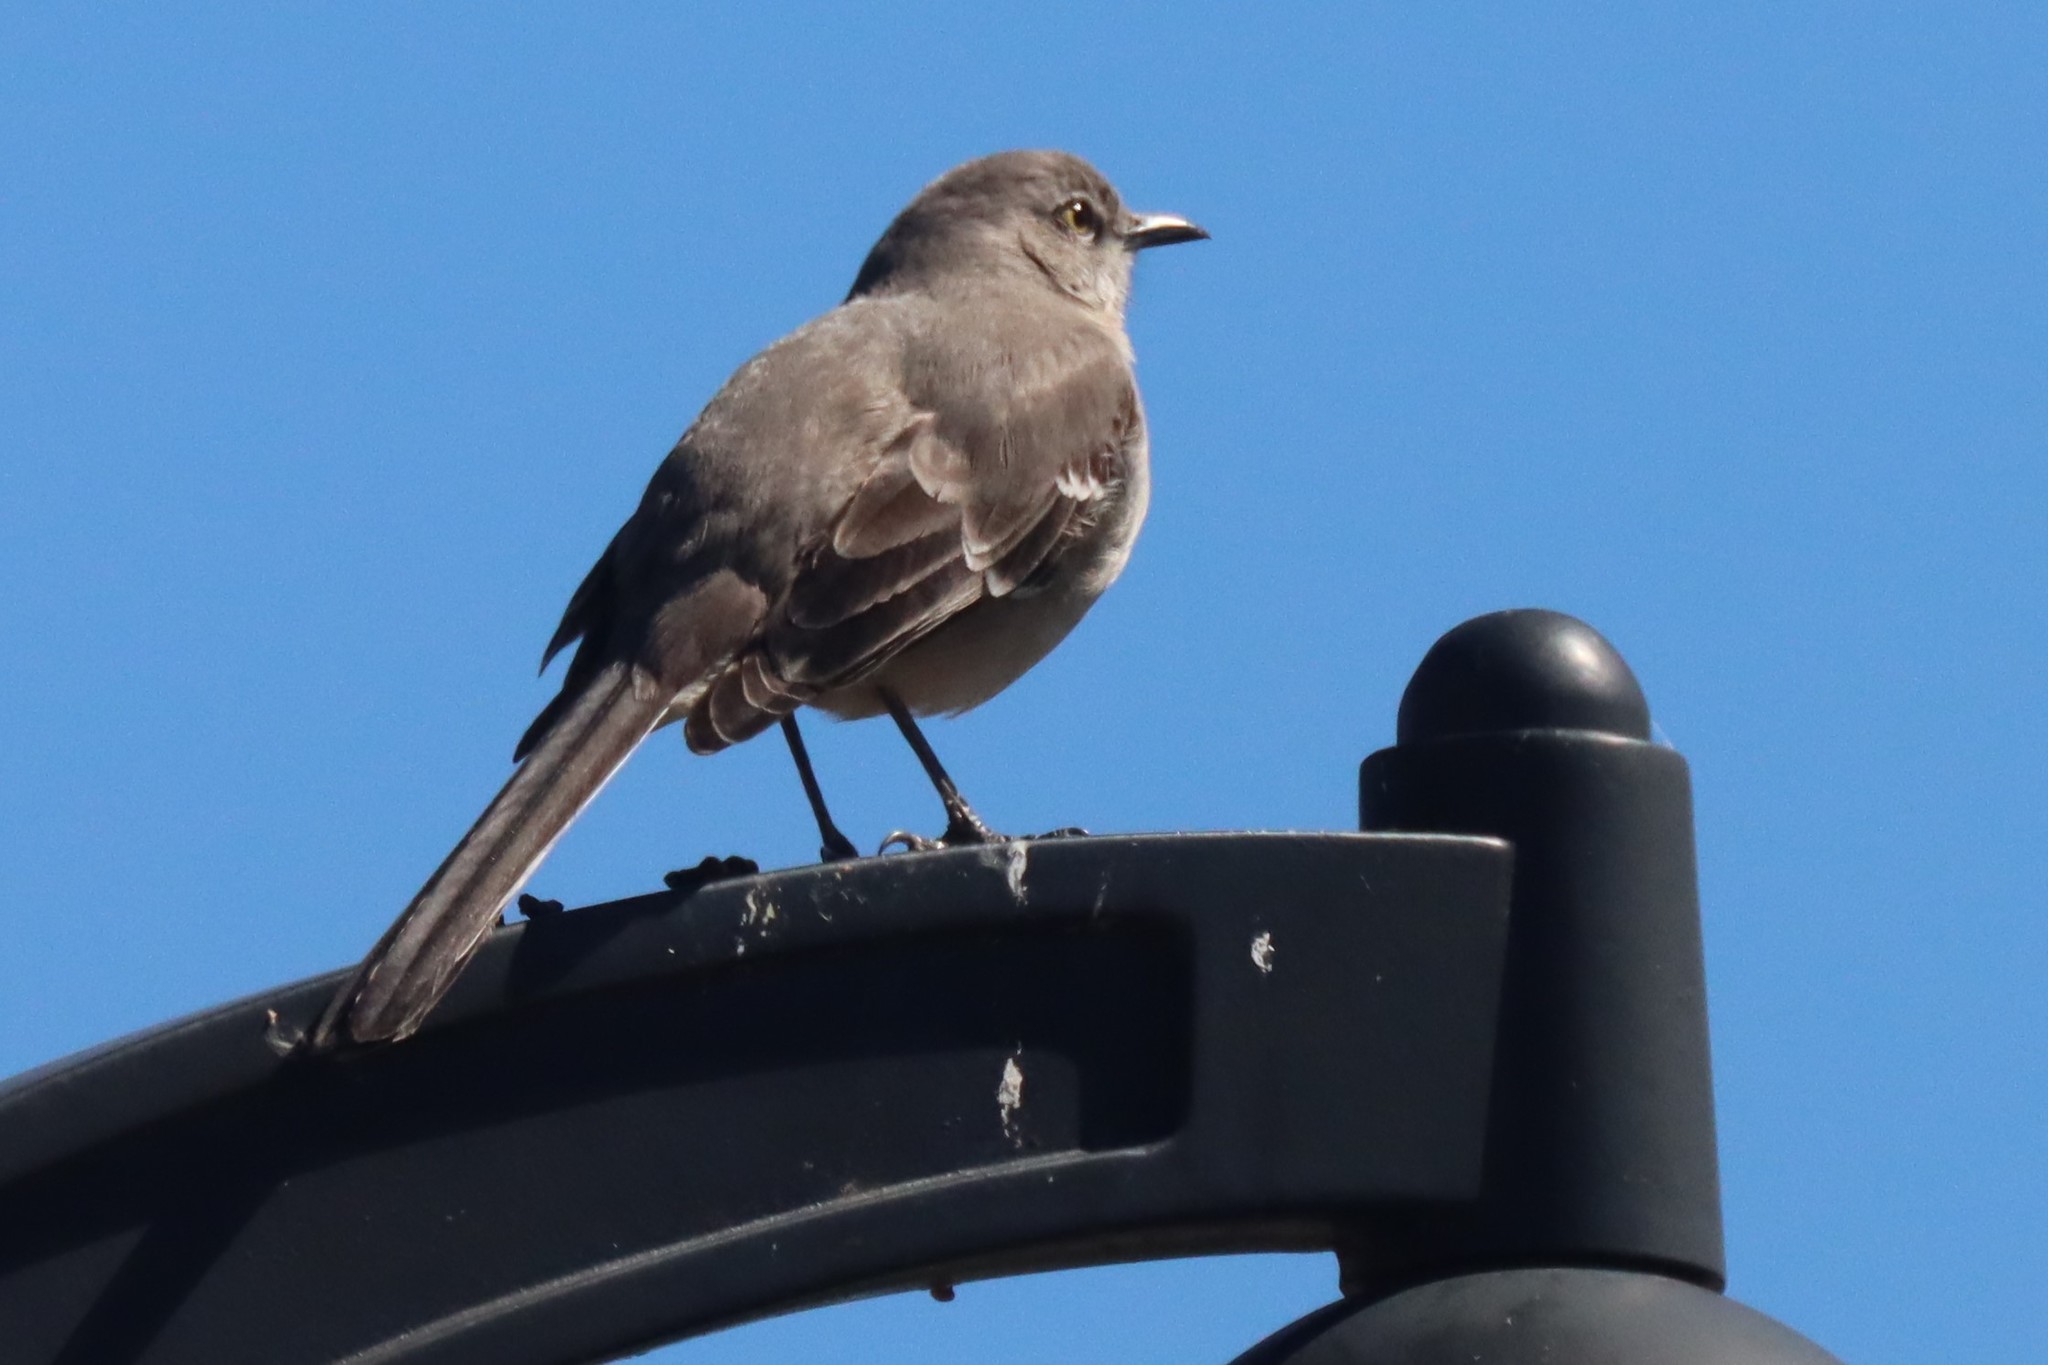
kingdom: Animalia
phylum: Chordata
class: Aves
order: Passeriformes
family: Mimidae
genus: Mimus
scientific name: Mimus polyglottos
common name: Northern mockingbird
